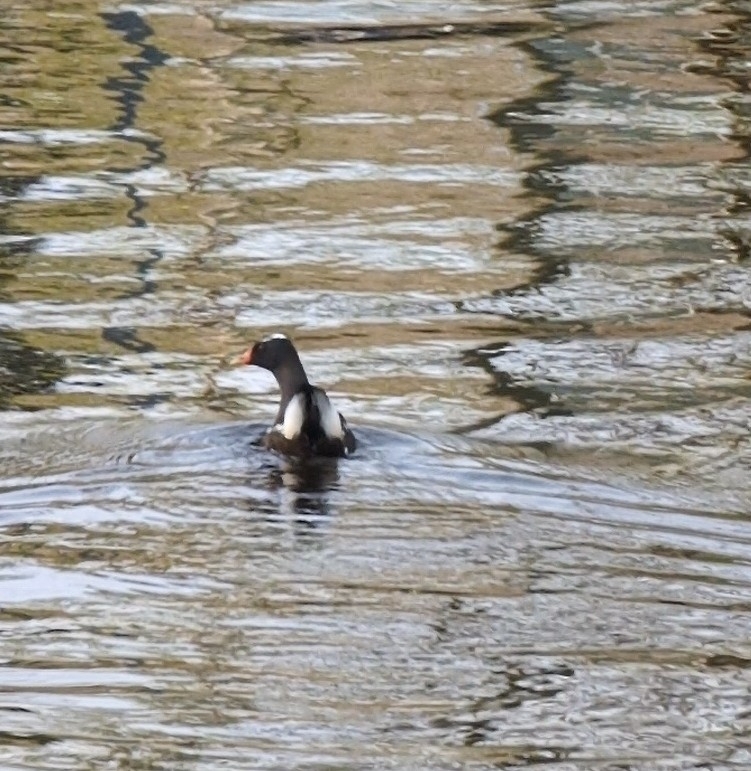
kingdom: Animalia
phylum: Chordata
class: Aves
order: Gruiformes
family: Rallidae
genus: Gallinula
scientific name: Gallinula chloropus
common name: Common moorhen
